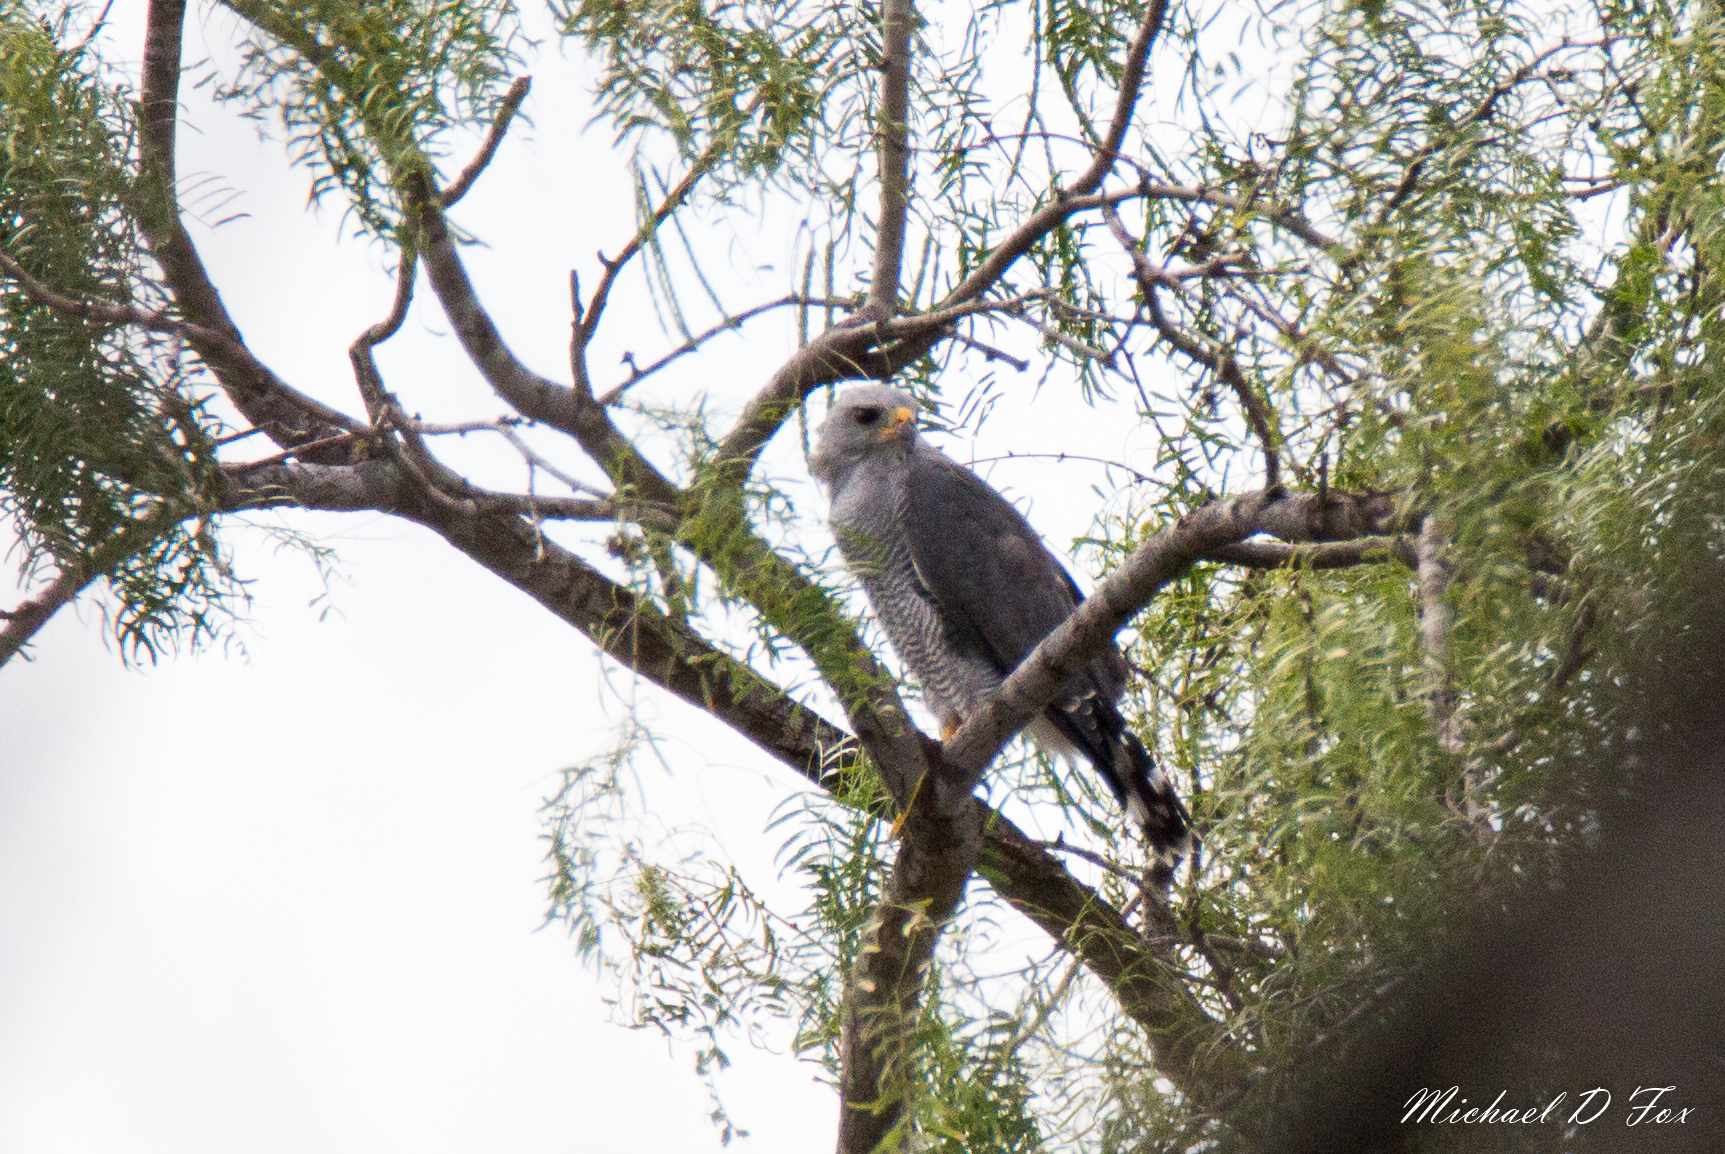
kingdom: Animalia
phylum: Chordata
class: Aves
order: Accipitriformes
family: Accipitridae
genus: Buteo
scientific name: Buteo nitidus
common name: Grey-lined hawk
